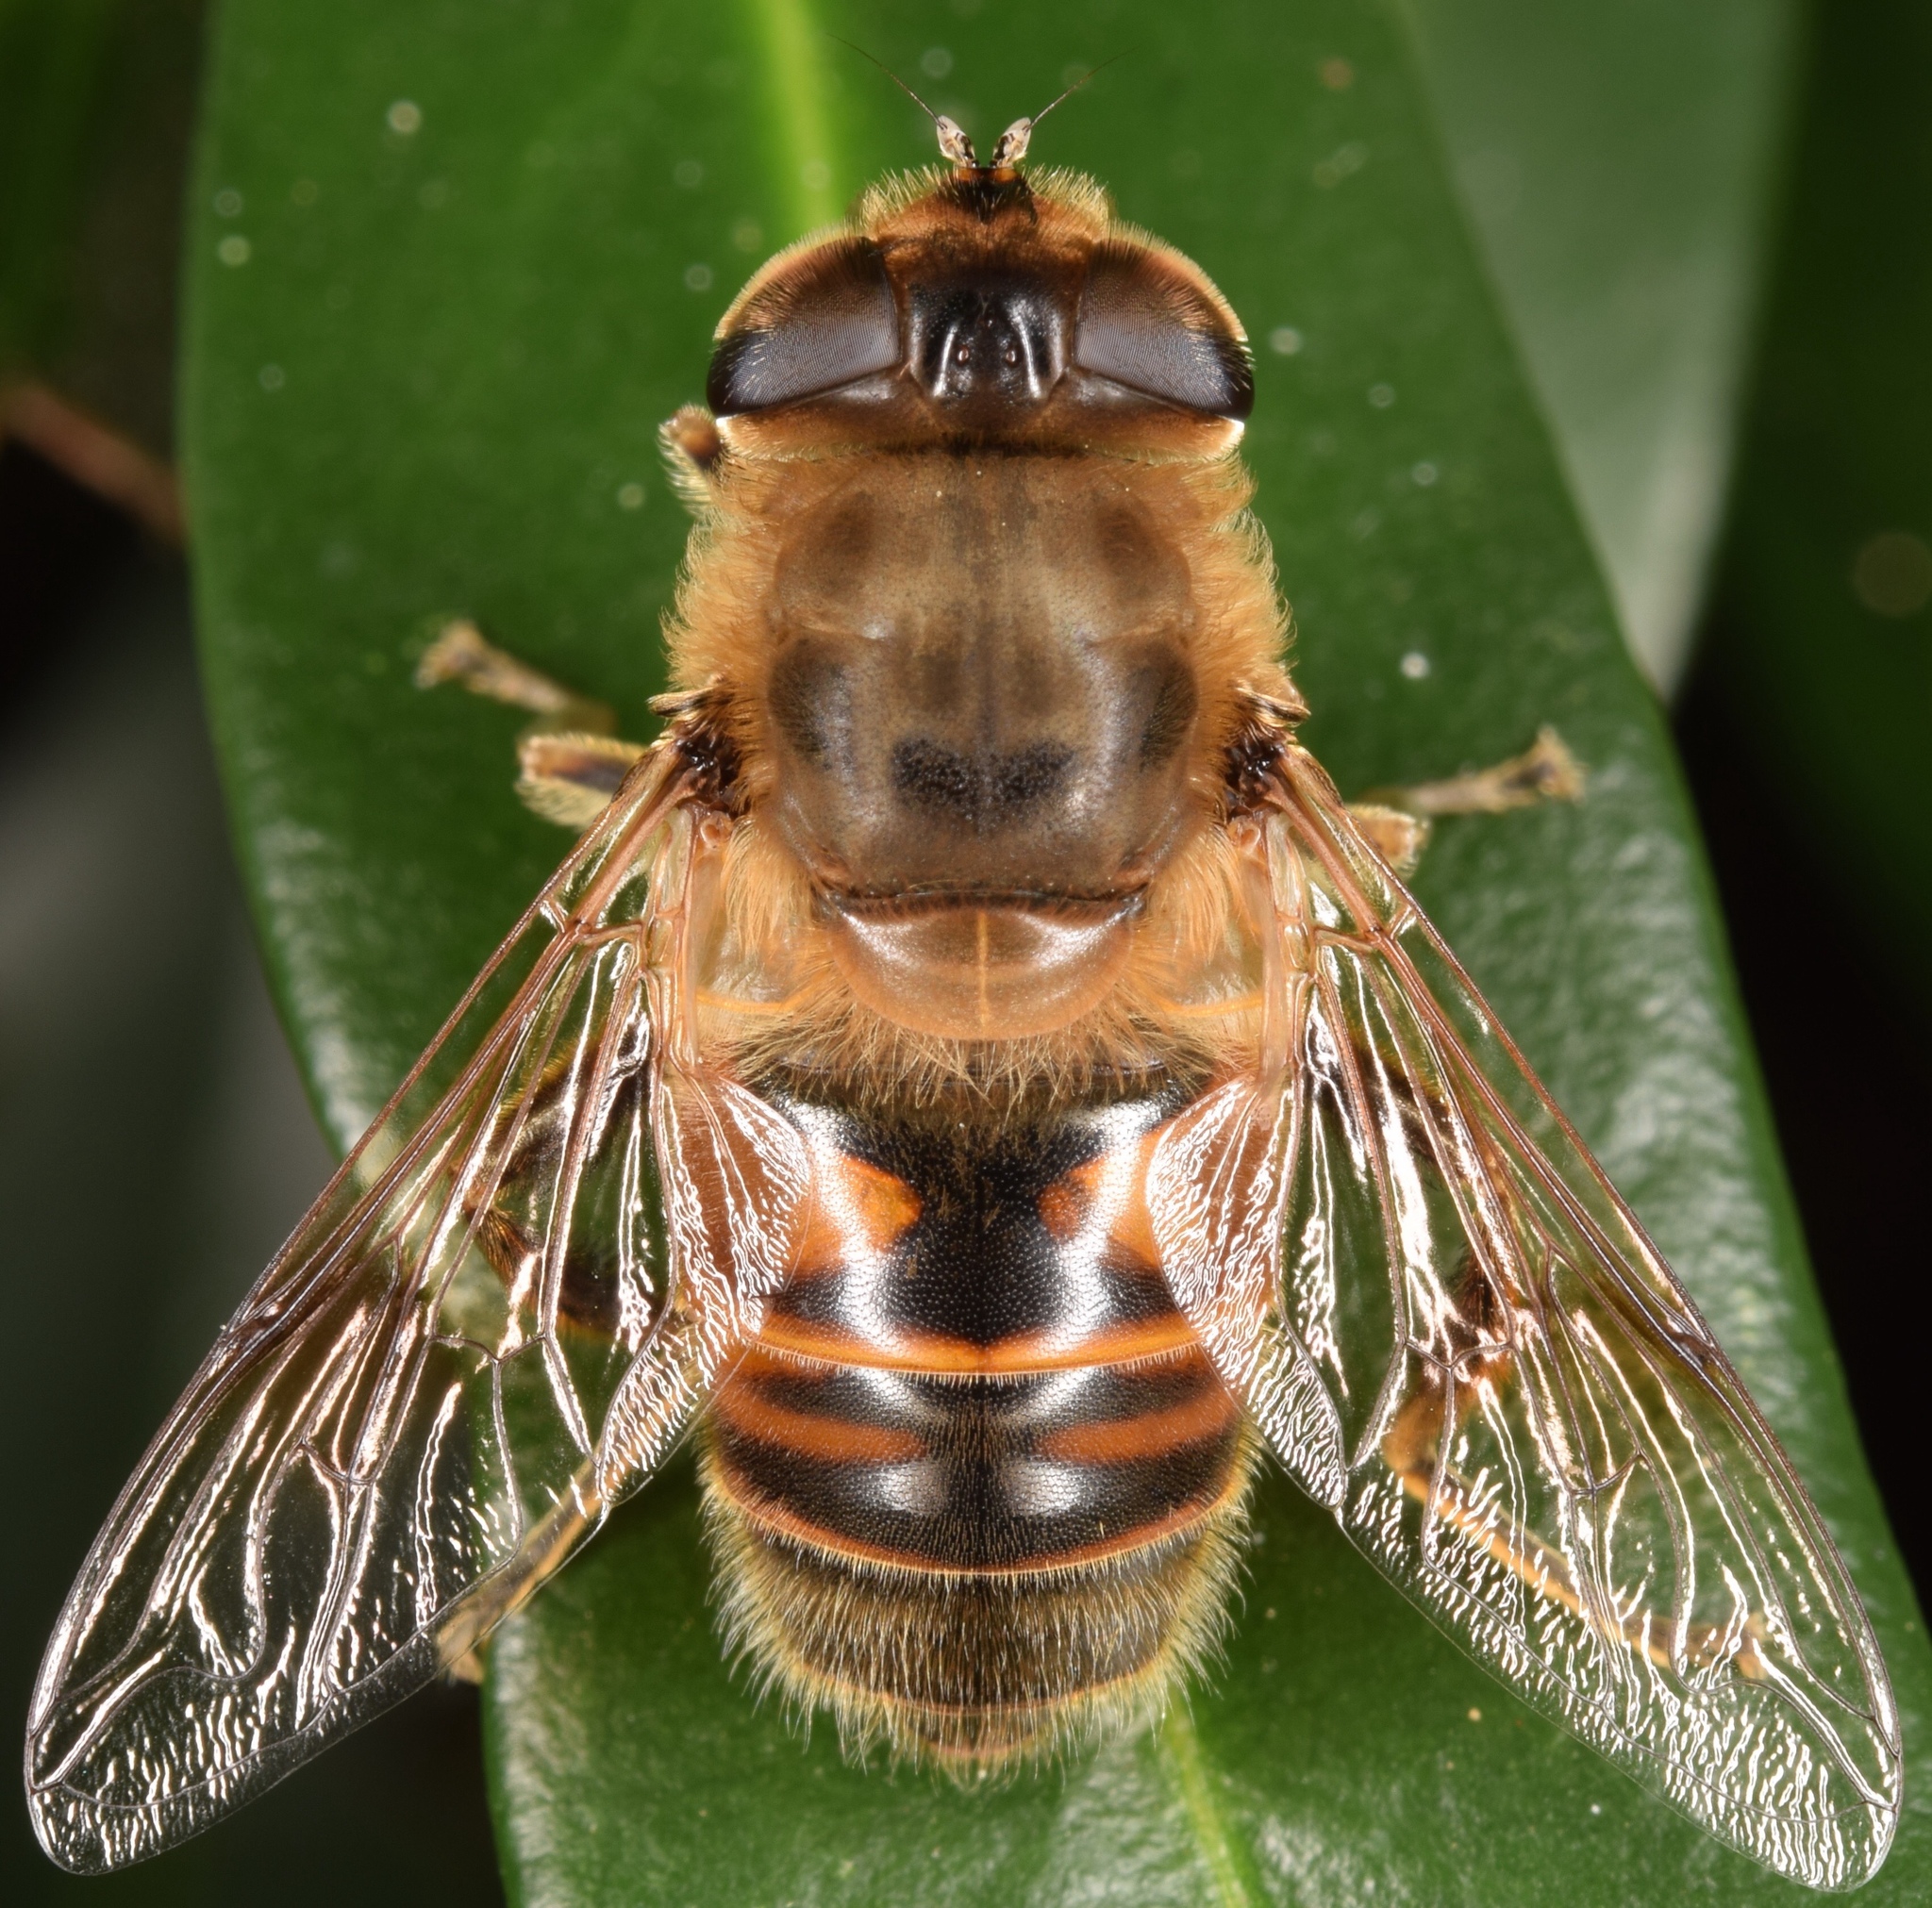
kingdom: Animalia
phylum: Arthropoda
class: Insecta
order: Diptera
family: Syrphidae
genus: Eristalis
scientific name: Eristalis tenax
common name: Drone fly
